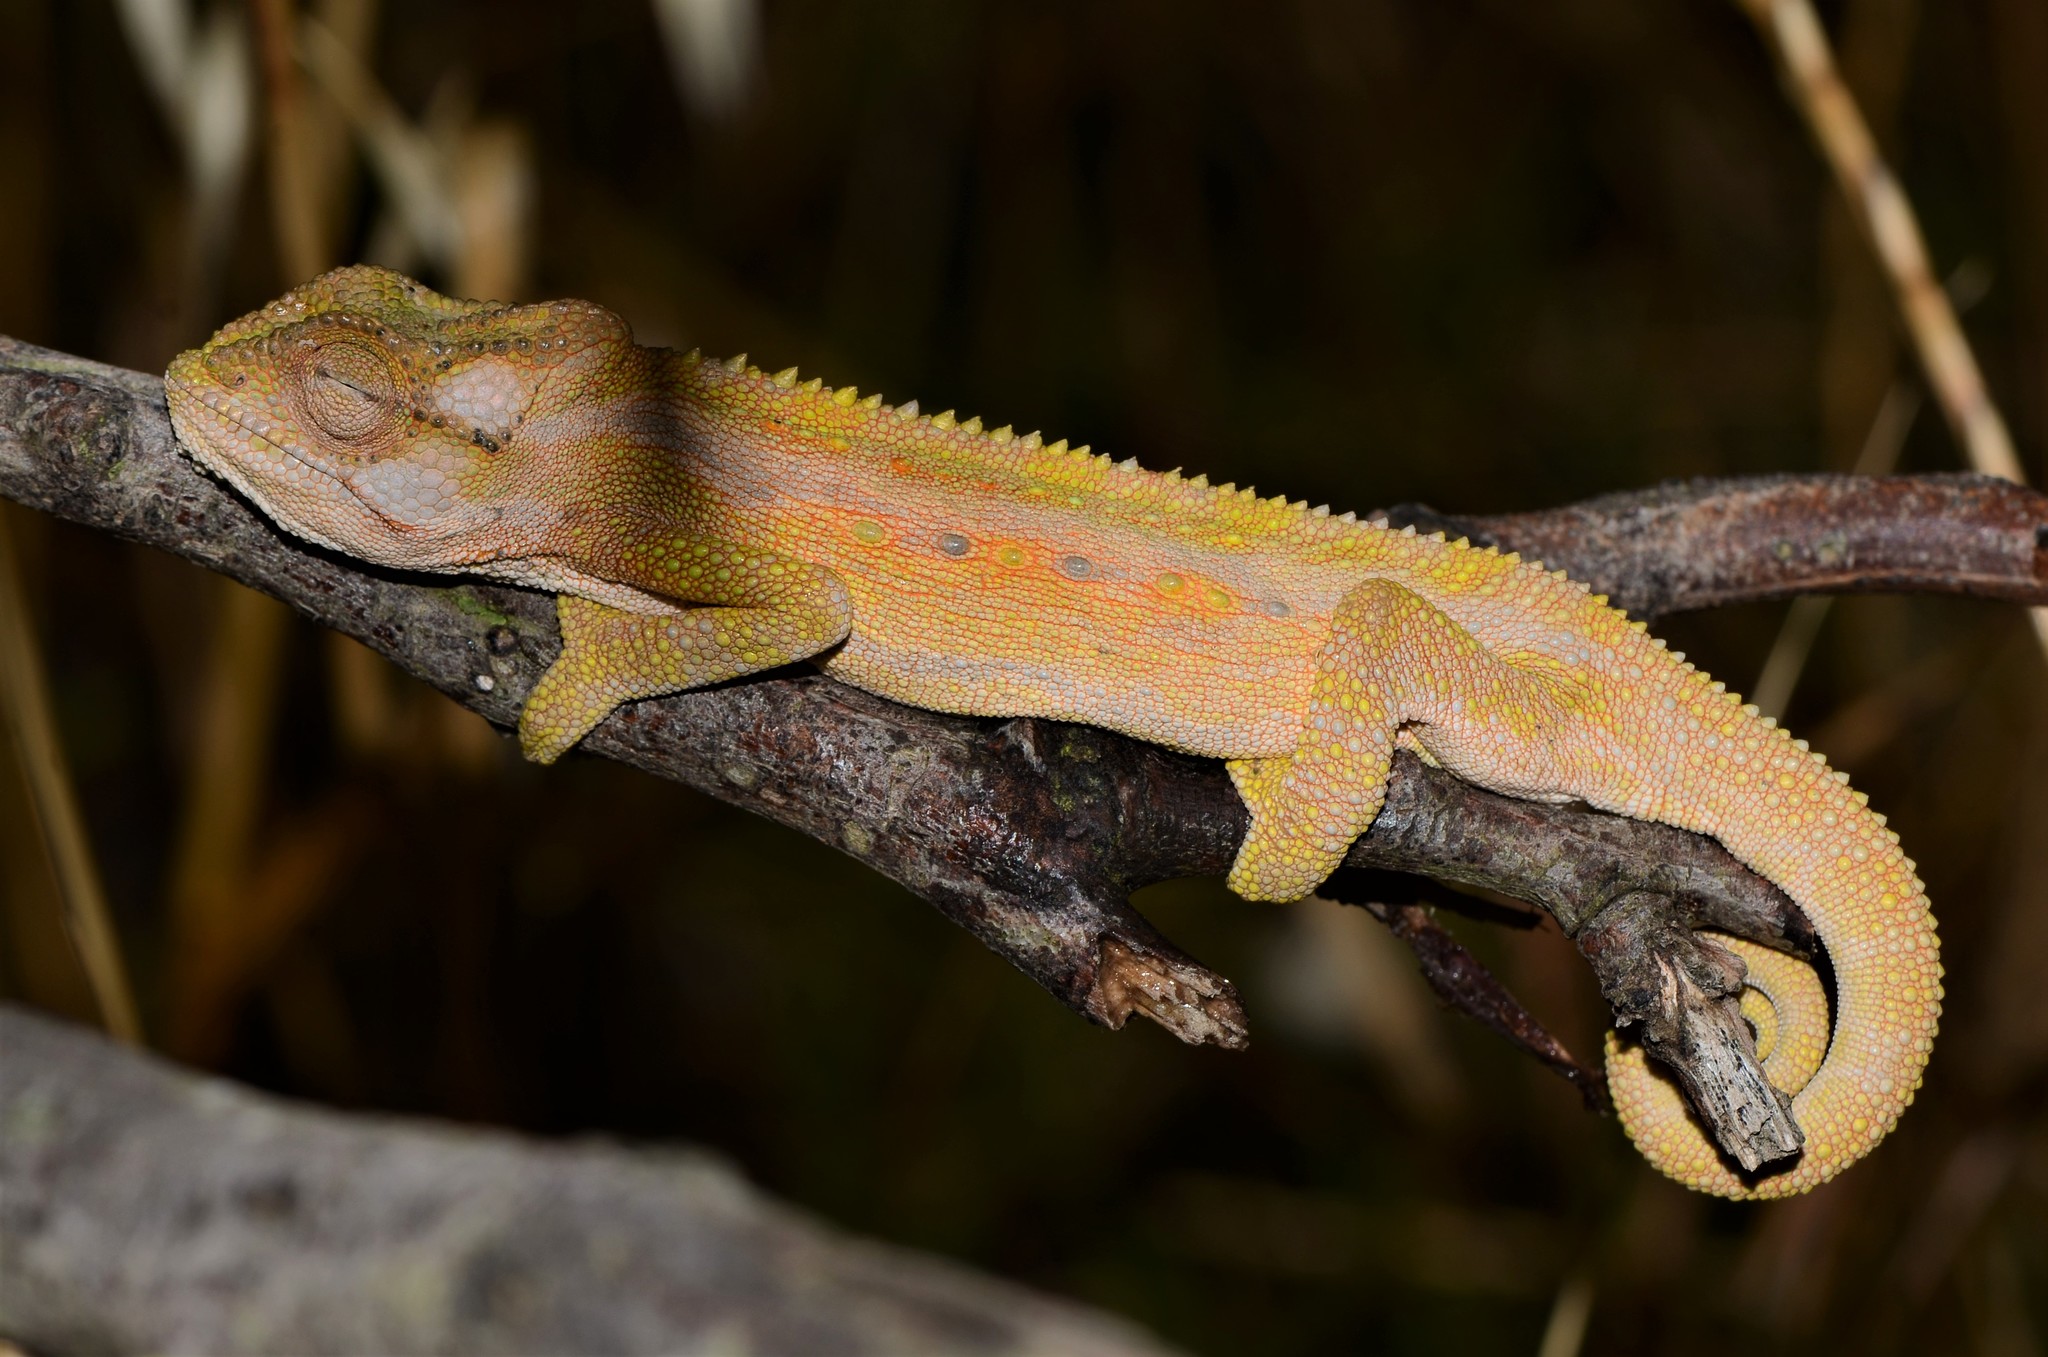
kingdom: Animalia
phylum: Chordata
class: Squamata
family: Chamaeleonidae
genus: Bradypodion
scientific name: Bradypodion pumilum
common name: Cape dwarf chameleon
